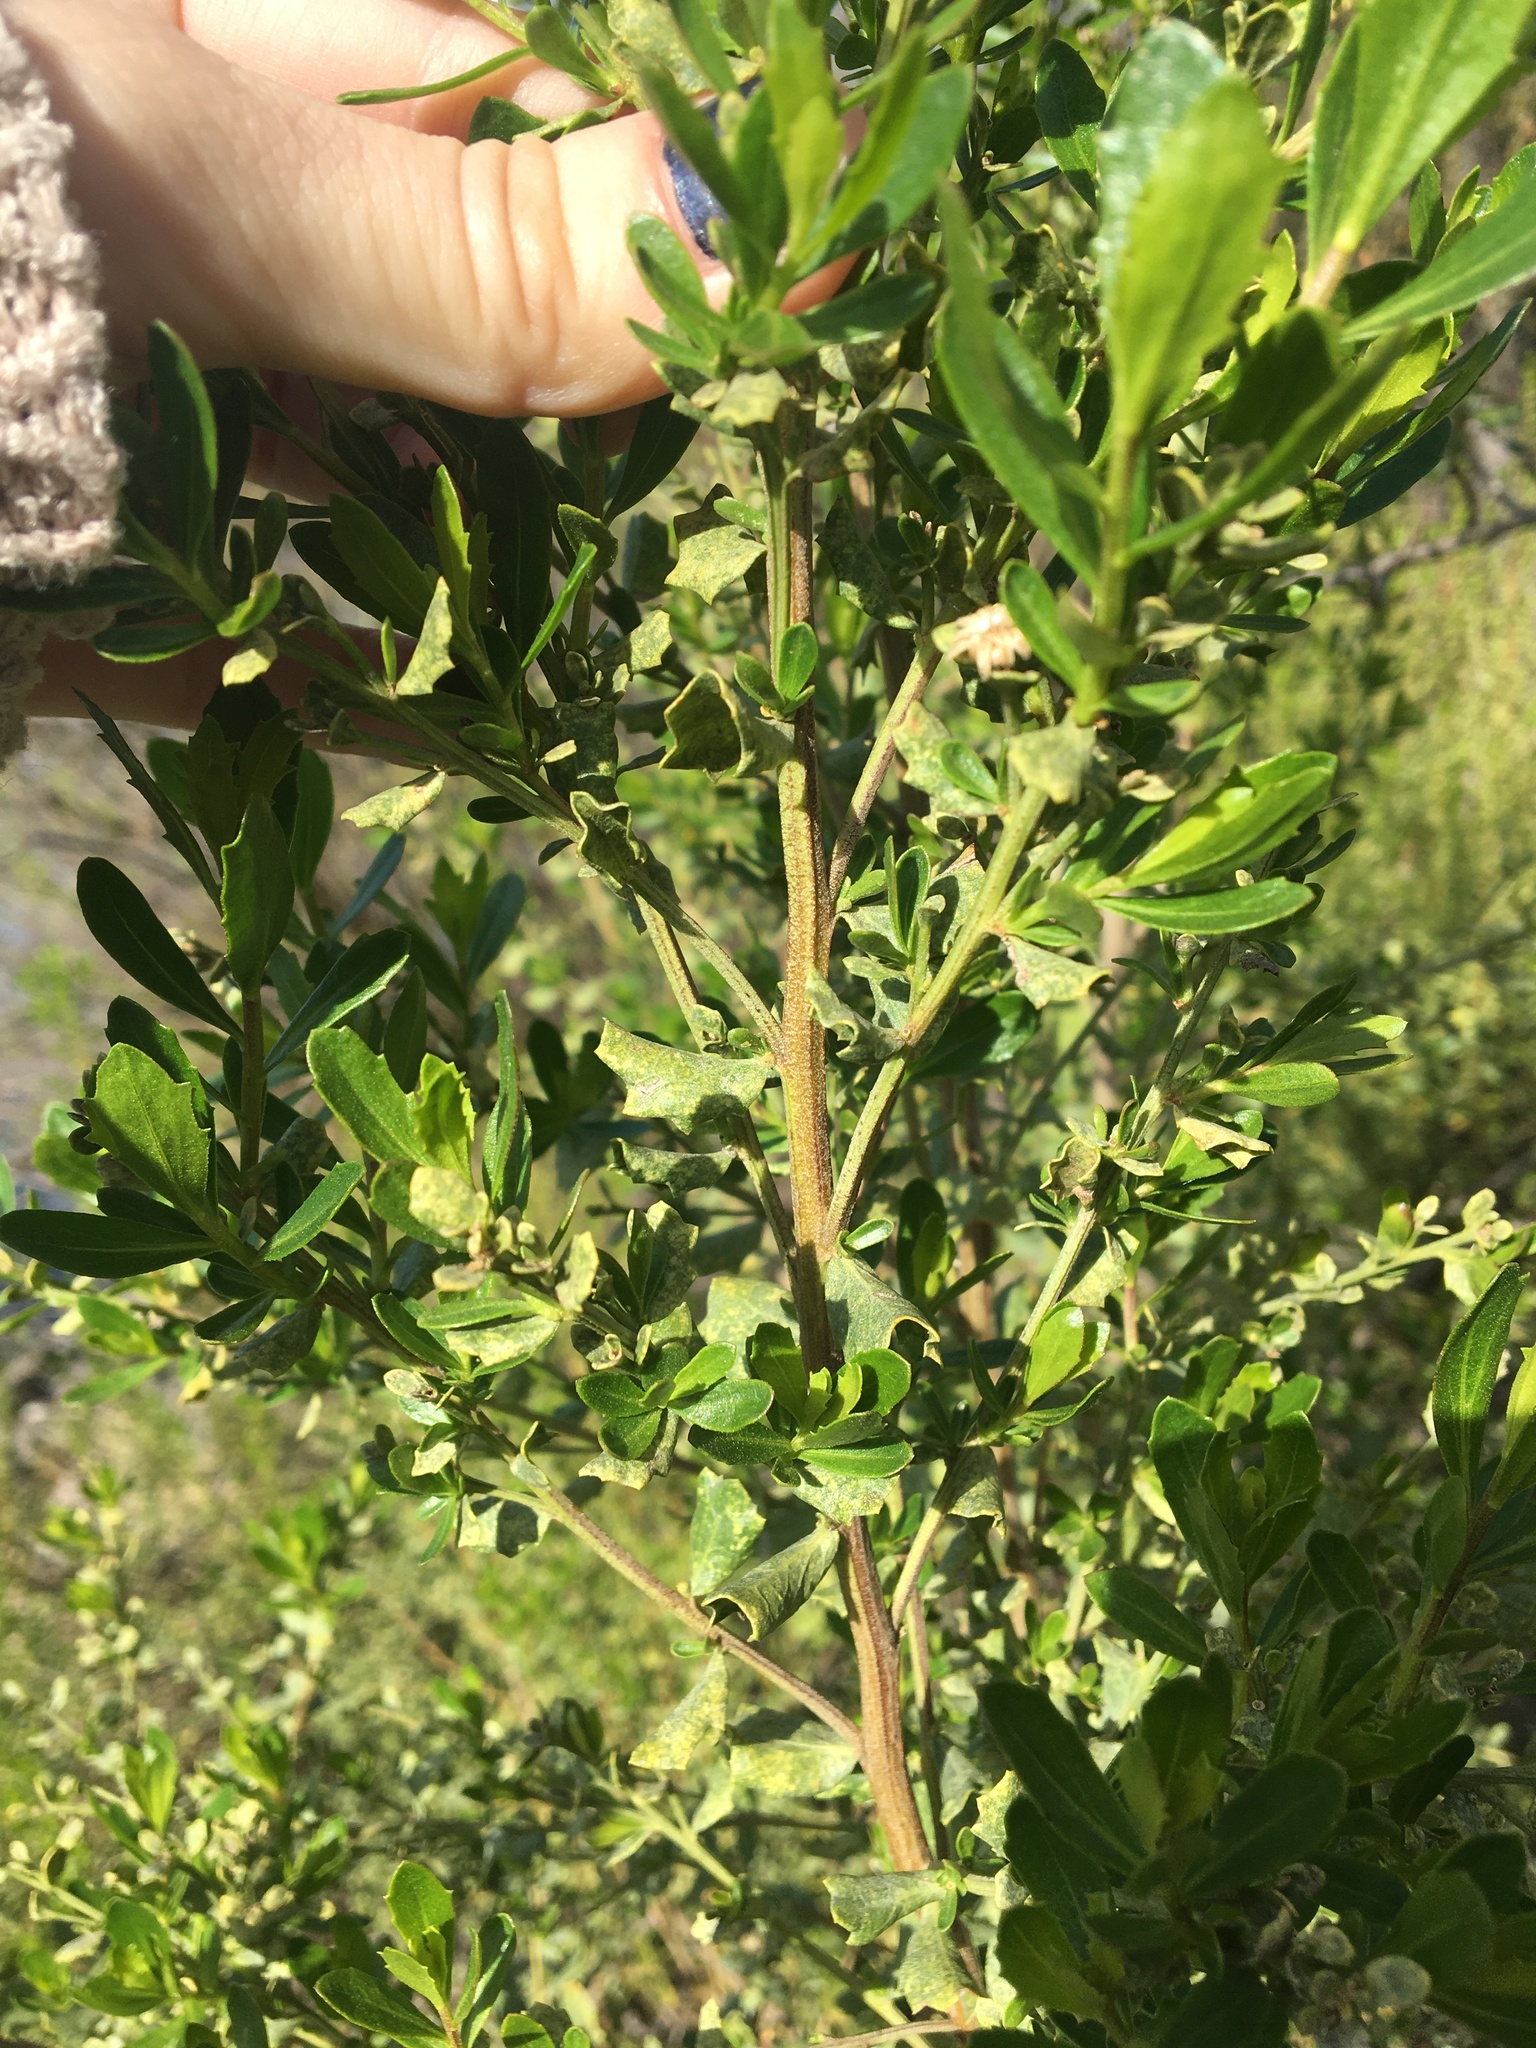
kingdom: Plantae
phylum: Tracheophyta
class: Magnoliopsida
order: Asterales
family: Asteraceae
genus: Baccharis
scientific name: Baccharis pilularis
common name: Coyotebrush
